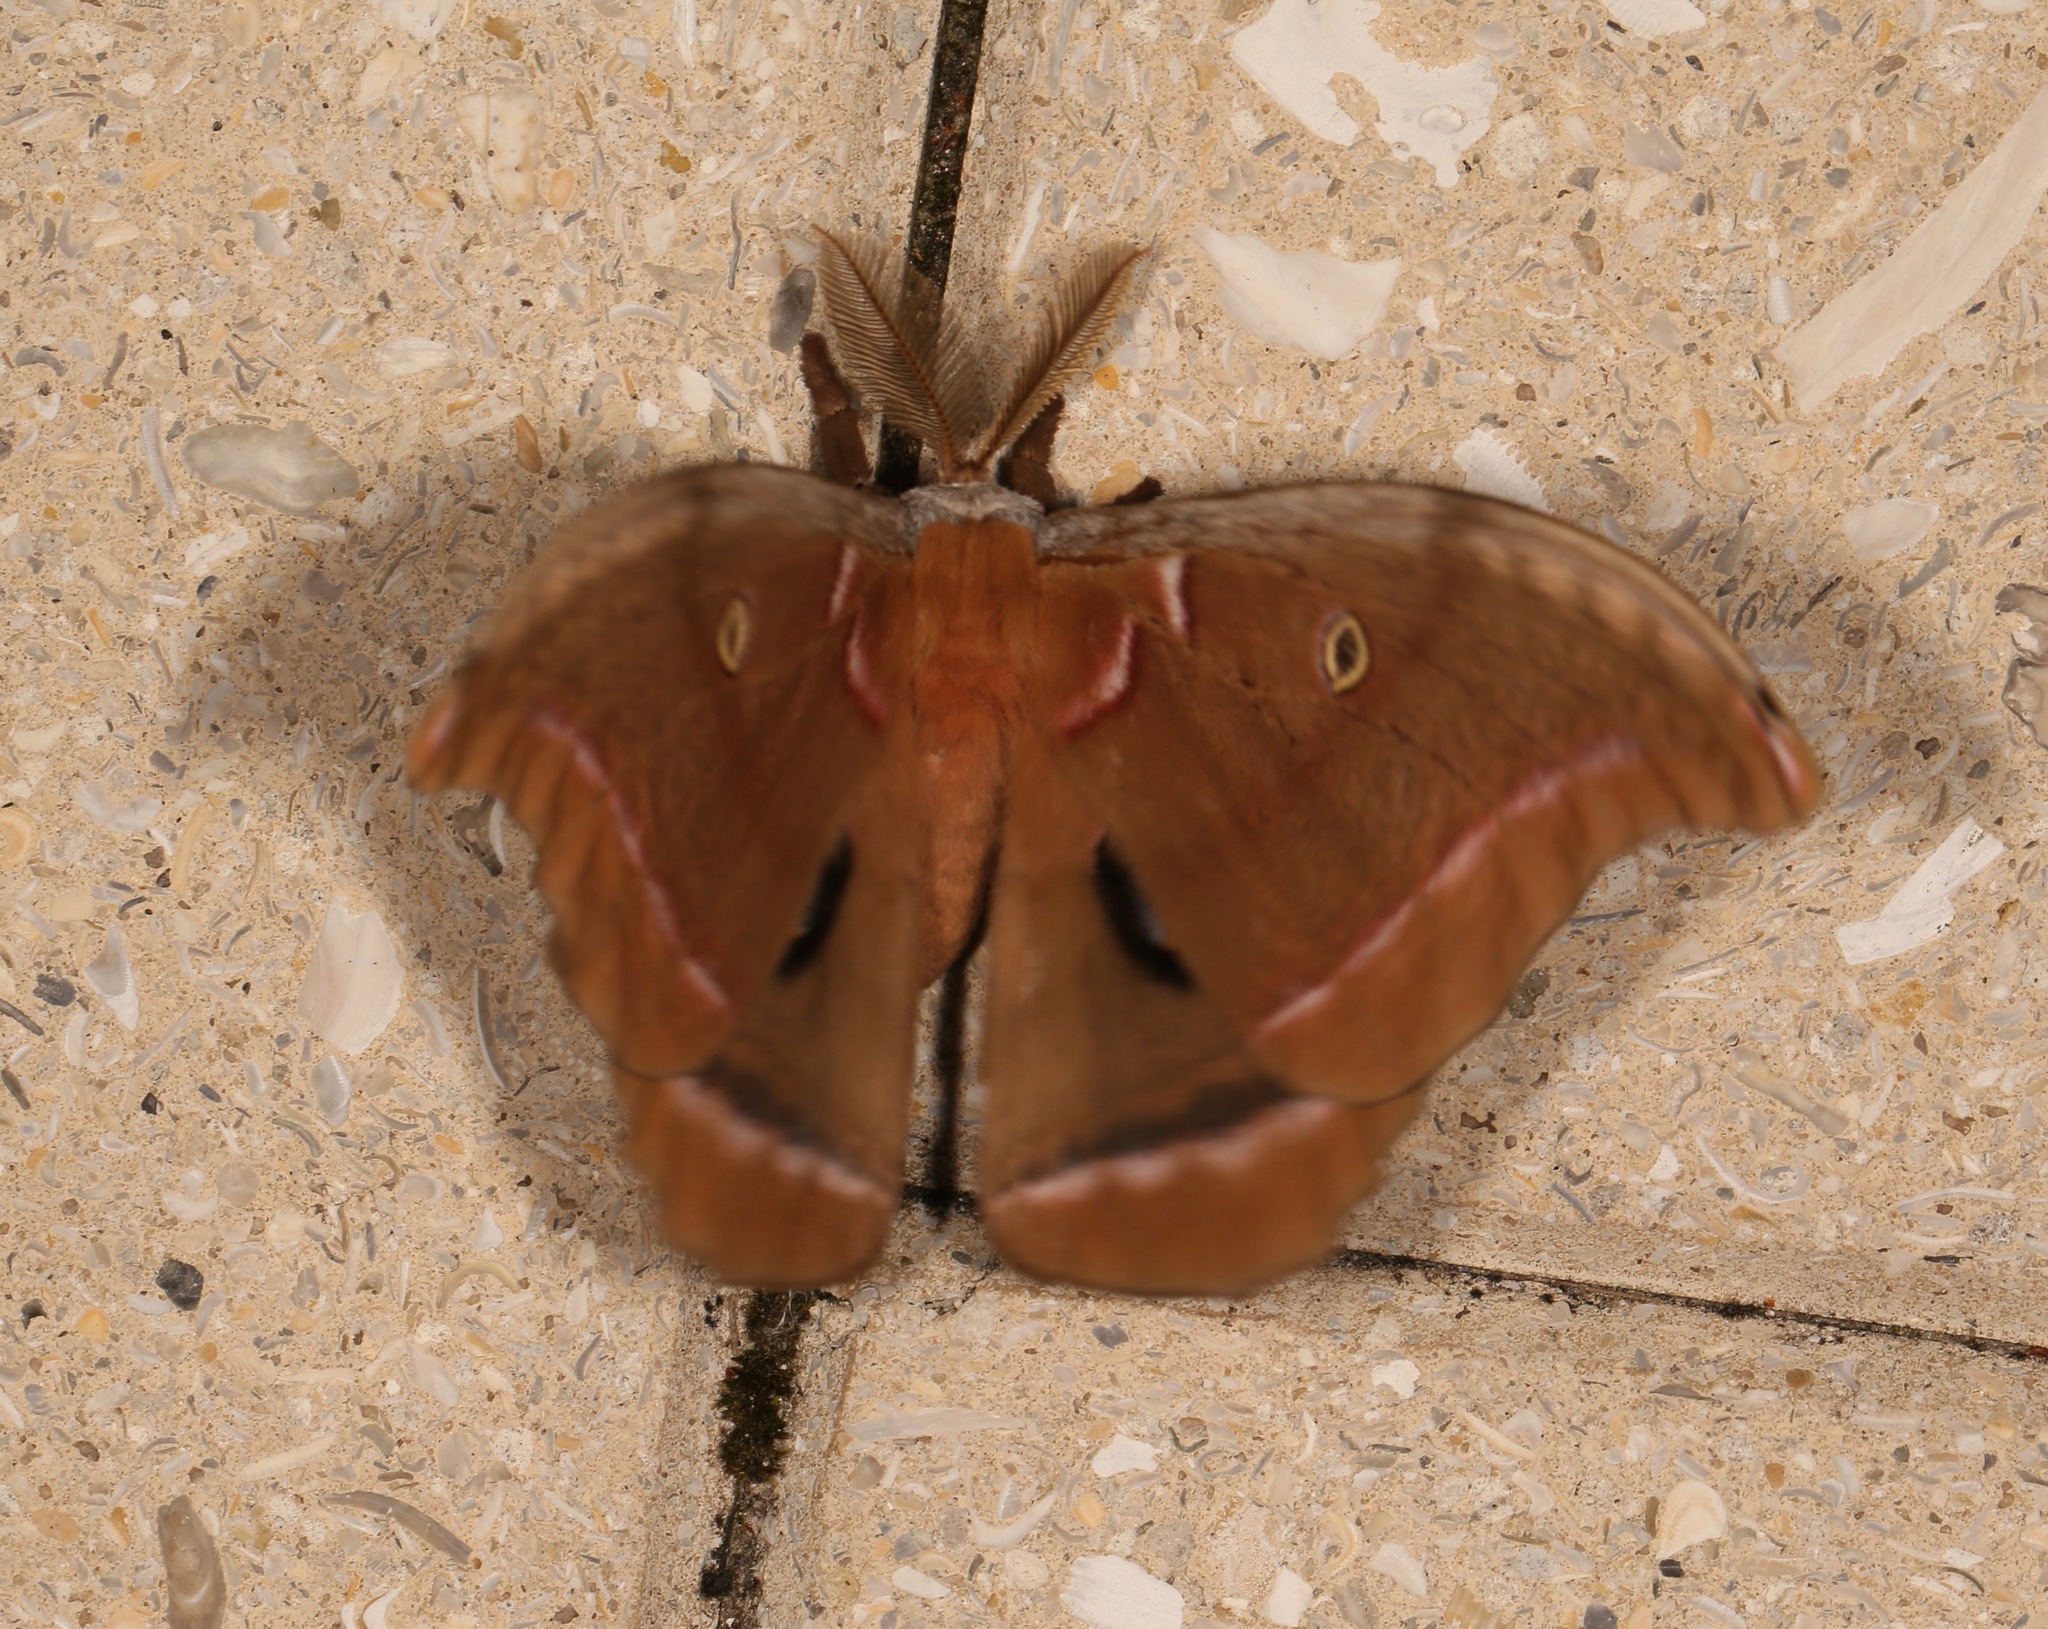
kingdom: Animalia
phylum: Arthropoda
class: Insecta
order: Lepidoptera
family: Saturniidae
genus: Antheraea
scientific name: Antheraea polyphemus
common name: Polyphemus moth
